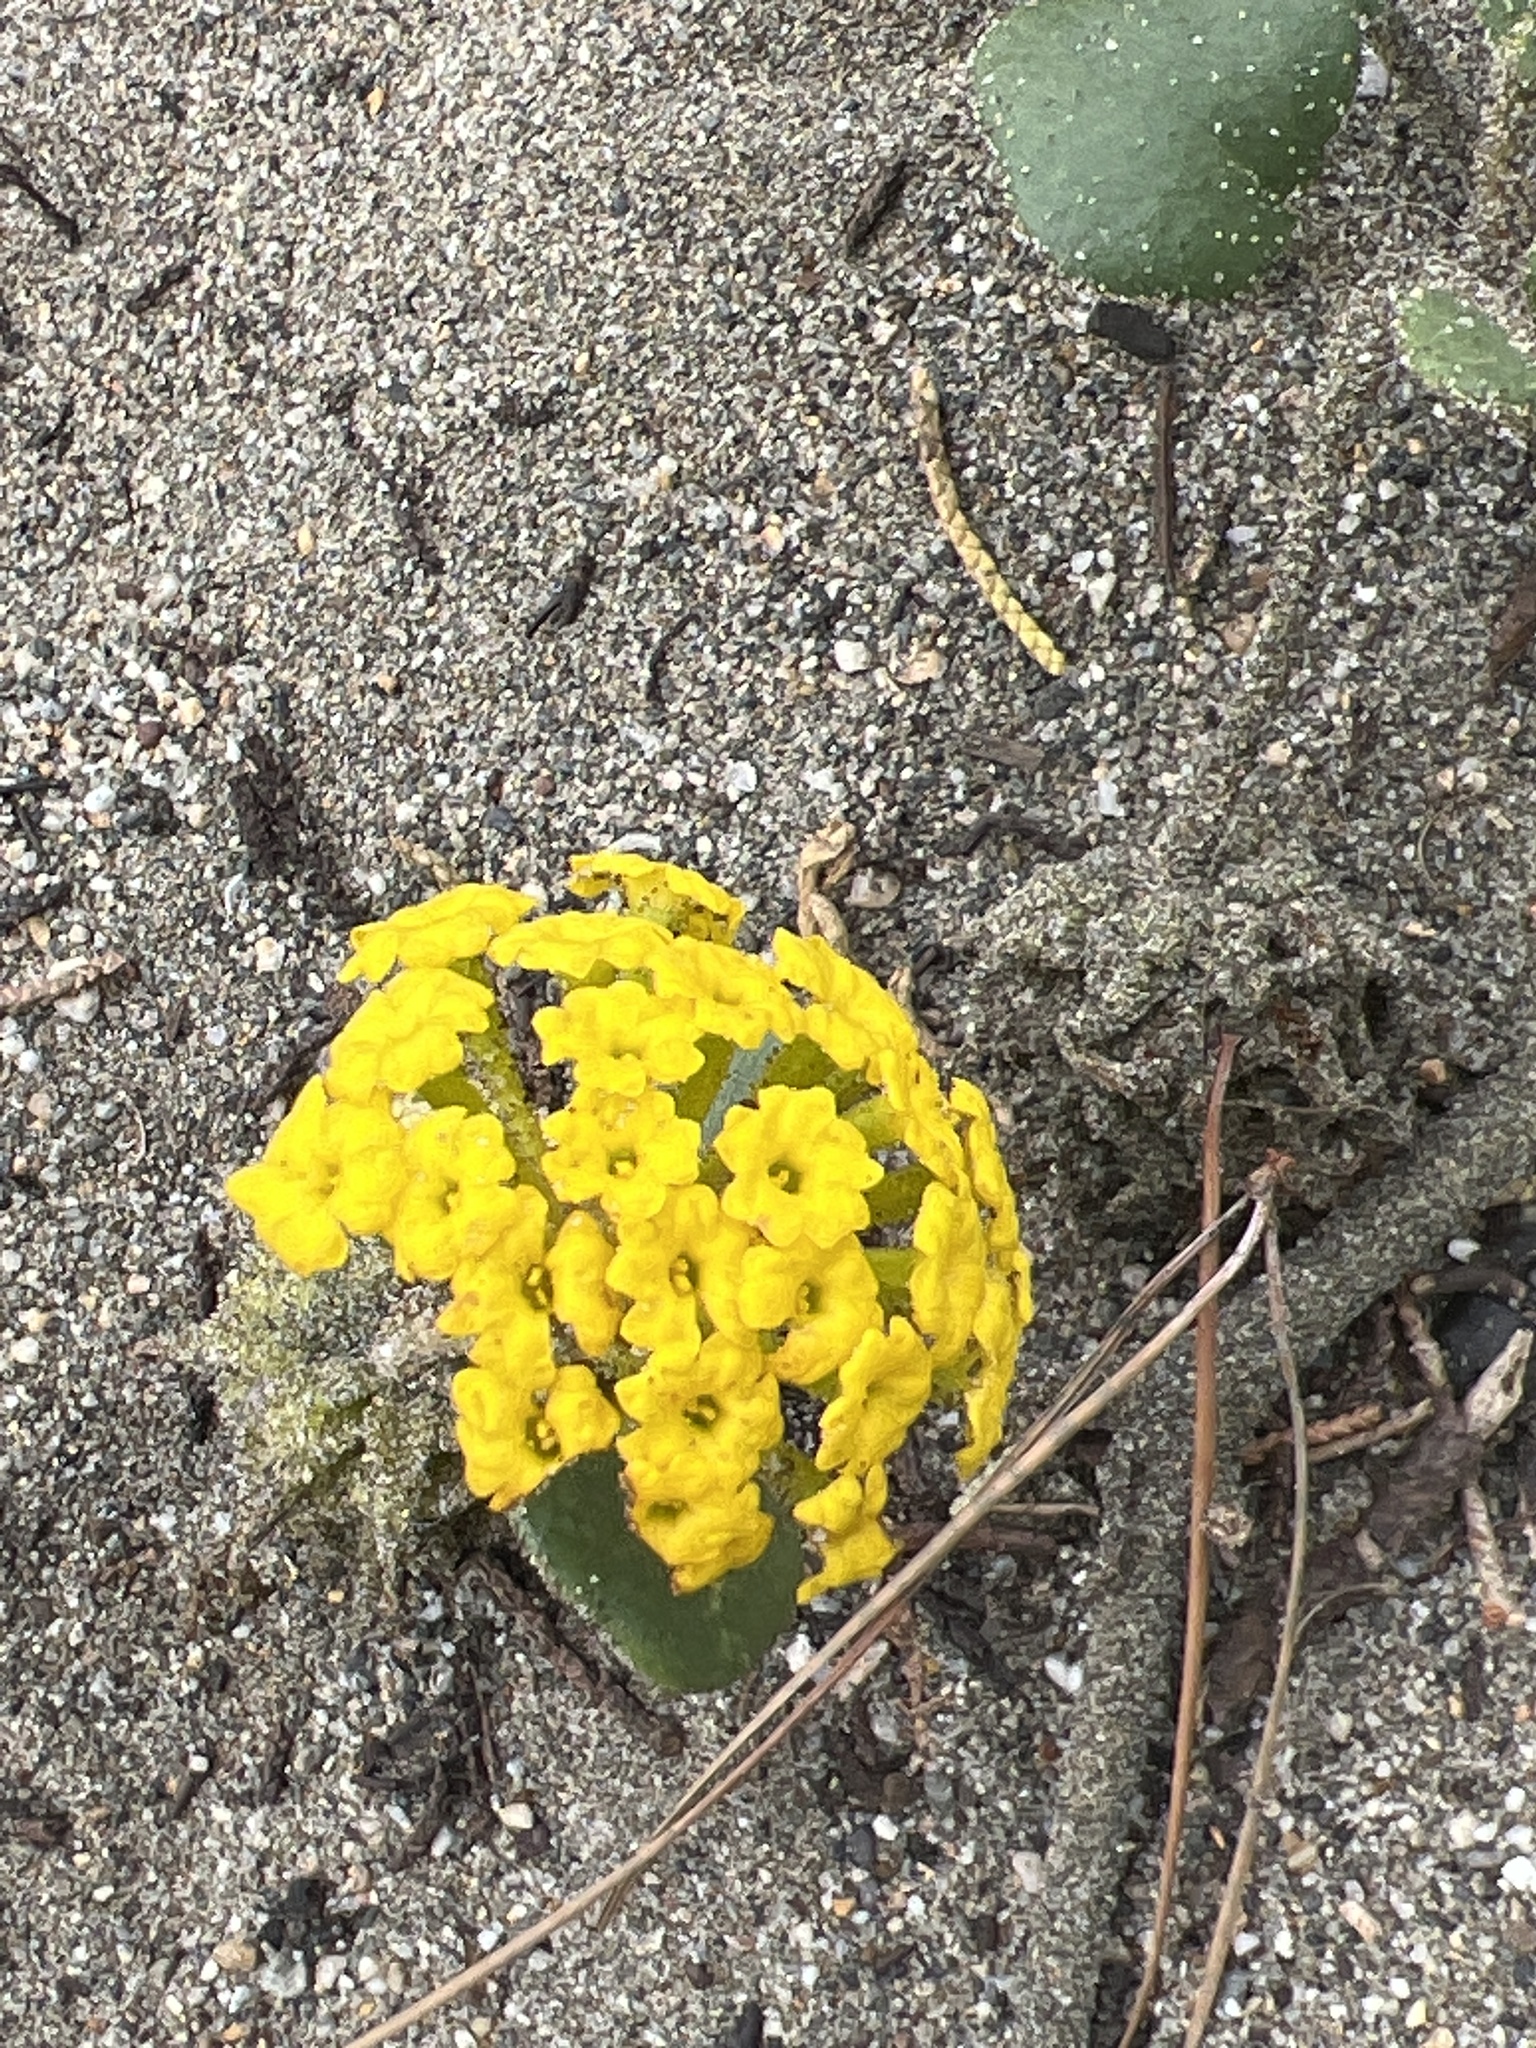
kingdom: Plantae
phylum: Tracheophyta
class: Magnoliopsida
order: Caryophyllales
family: Nyctaginaceae
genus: Abronia
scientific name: Abronia latifolia
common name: Yellow sand-verbena
